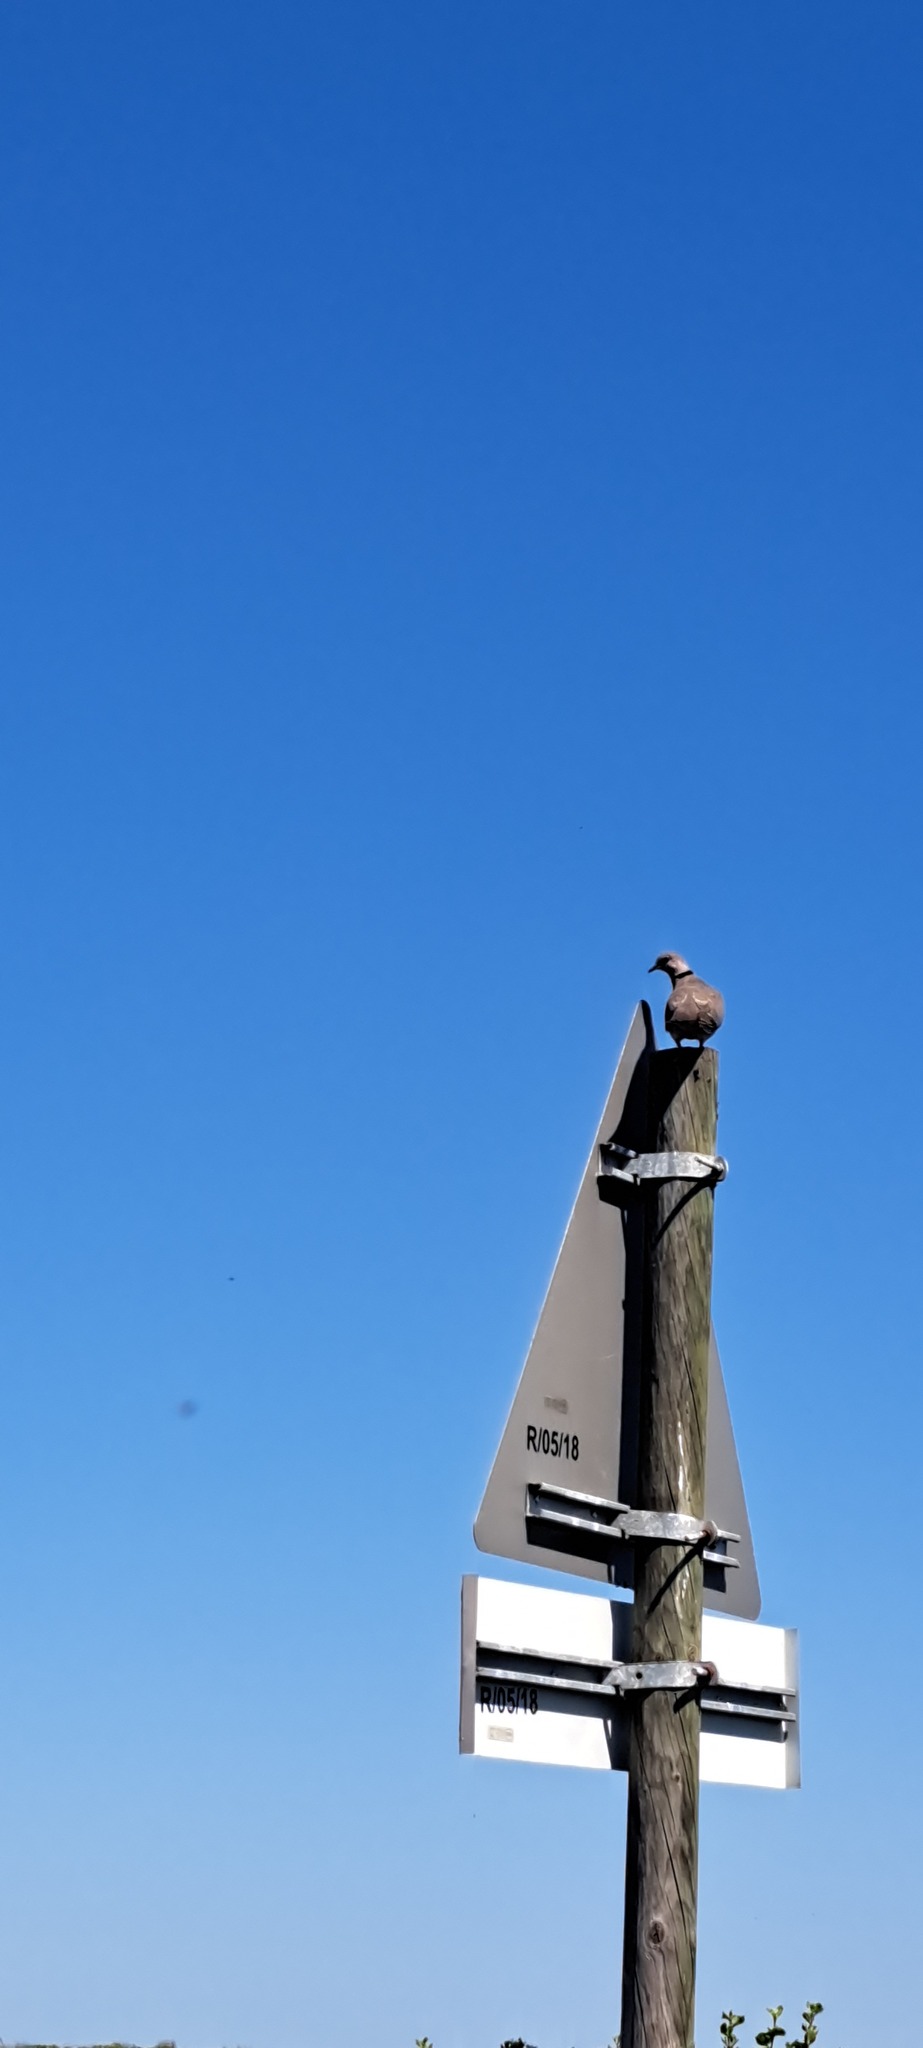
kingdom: Animalia
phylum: Chordata
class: Aves
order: Columbiformes
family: Columbidae
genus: Streptopelia
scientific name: Streptopelia semitorquata
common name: Red-eyed dove
